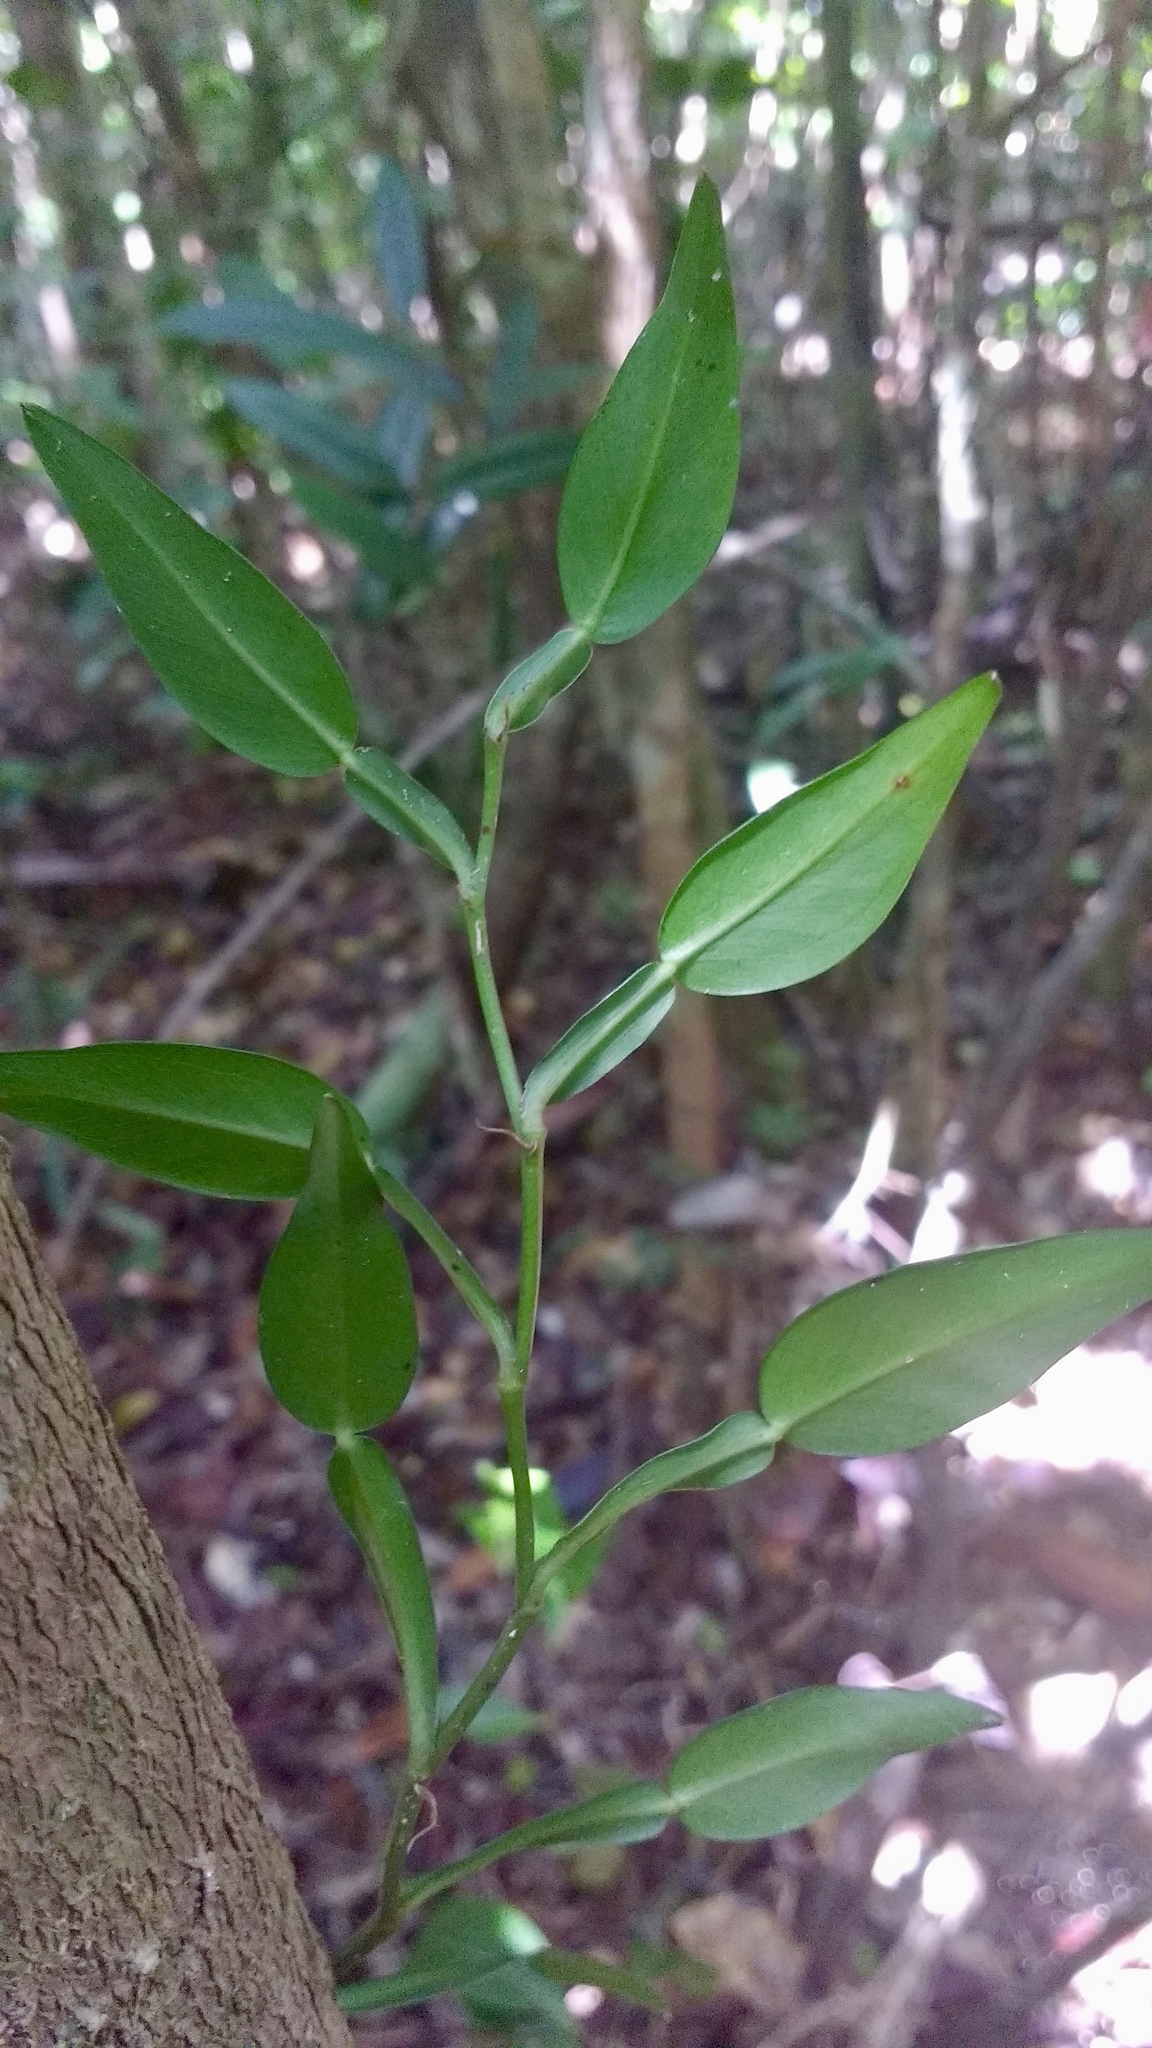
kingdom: Plantae
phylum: Tracheophyta
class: Liliopsida
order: Alismatales
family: Araceae
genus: Pothos
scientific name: Pothos scandens
